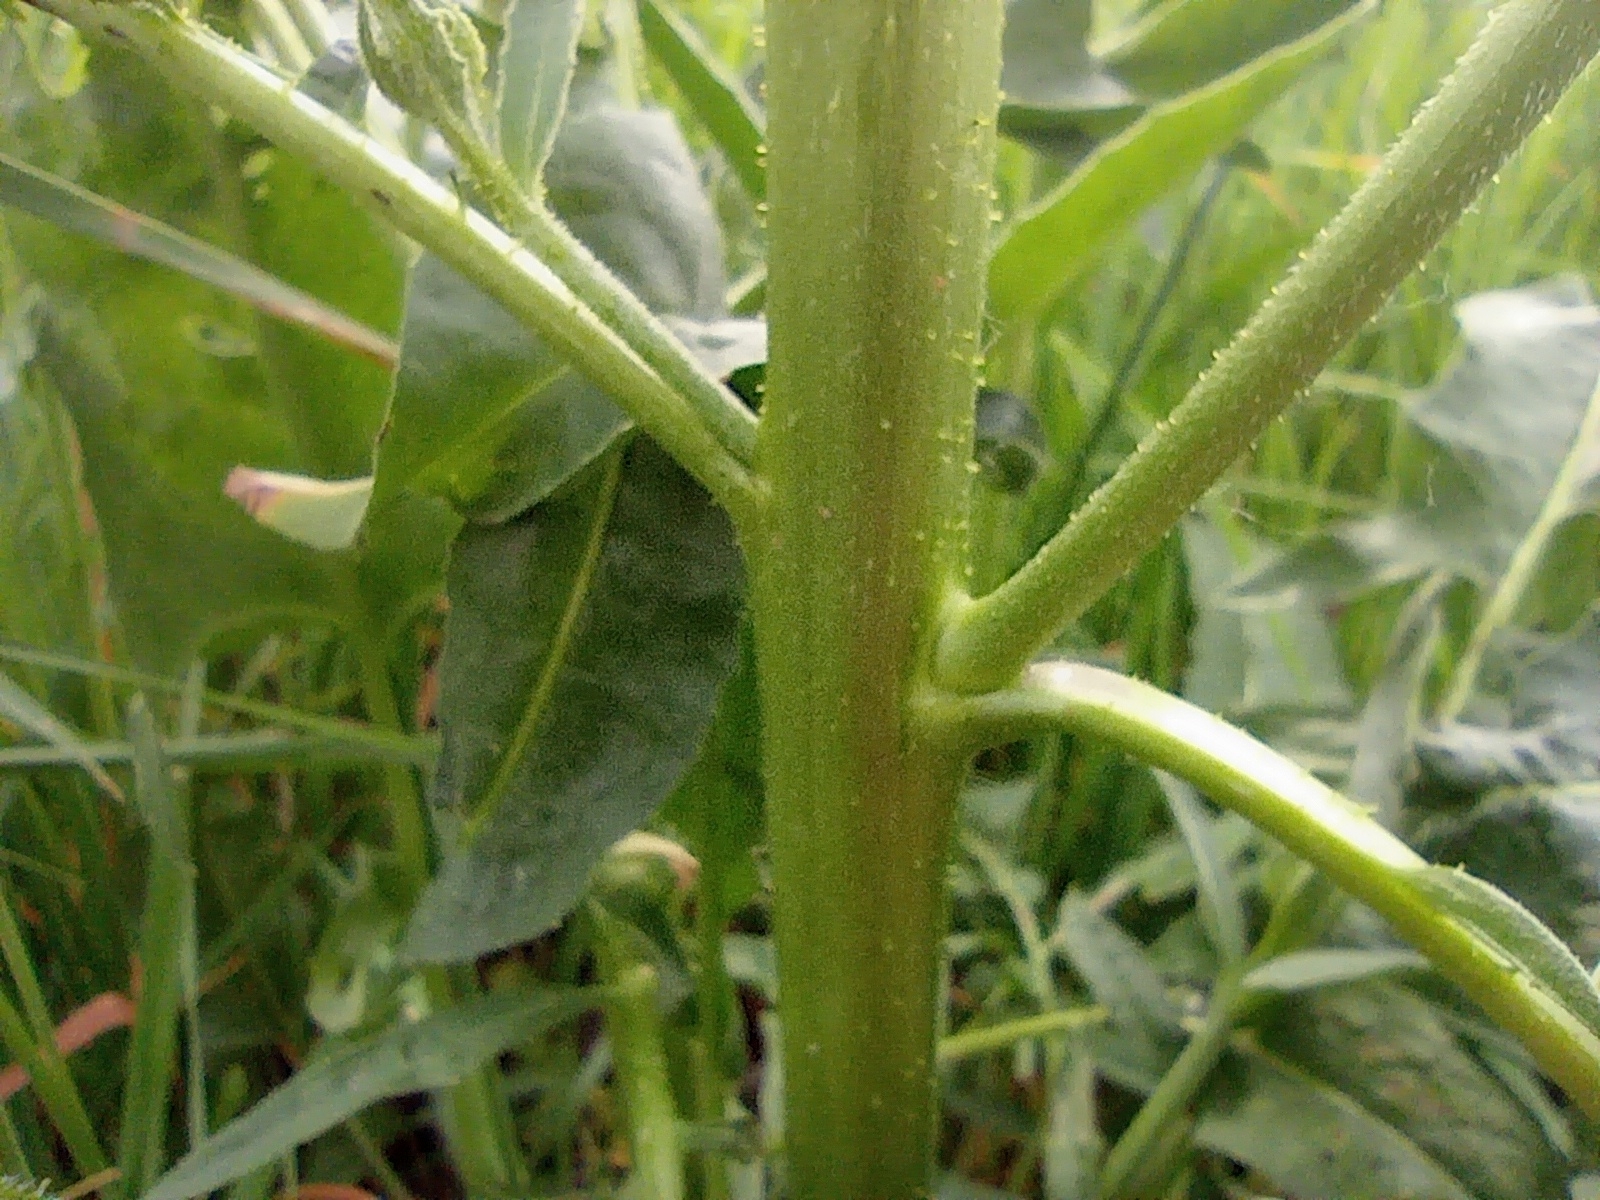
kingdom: Plantae
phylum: Tracheophyta
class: Magnoliopsida
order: Brassicales
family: Brassicaceae
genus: Bunias
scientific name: Bunias orientalis
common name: Warty-cabbage
